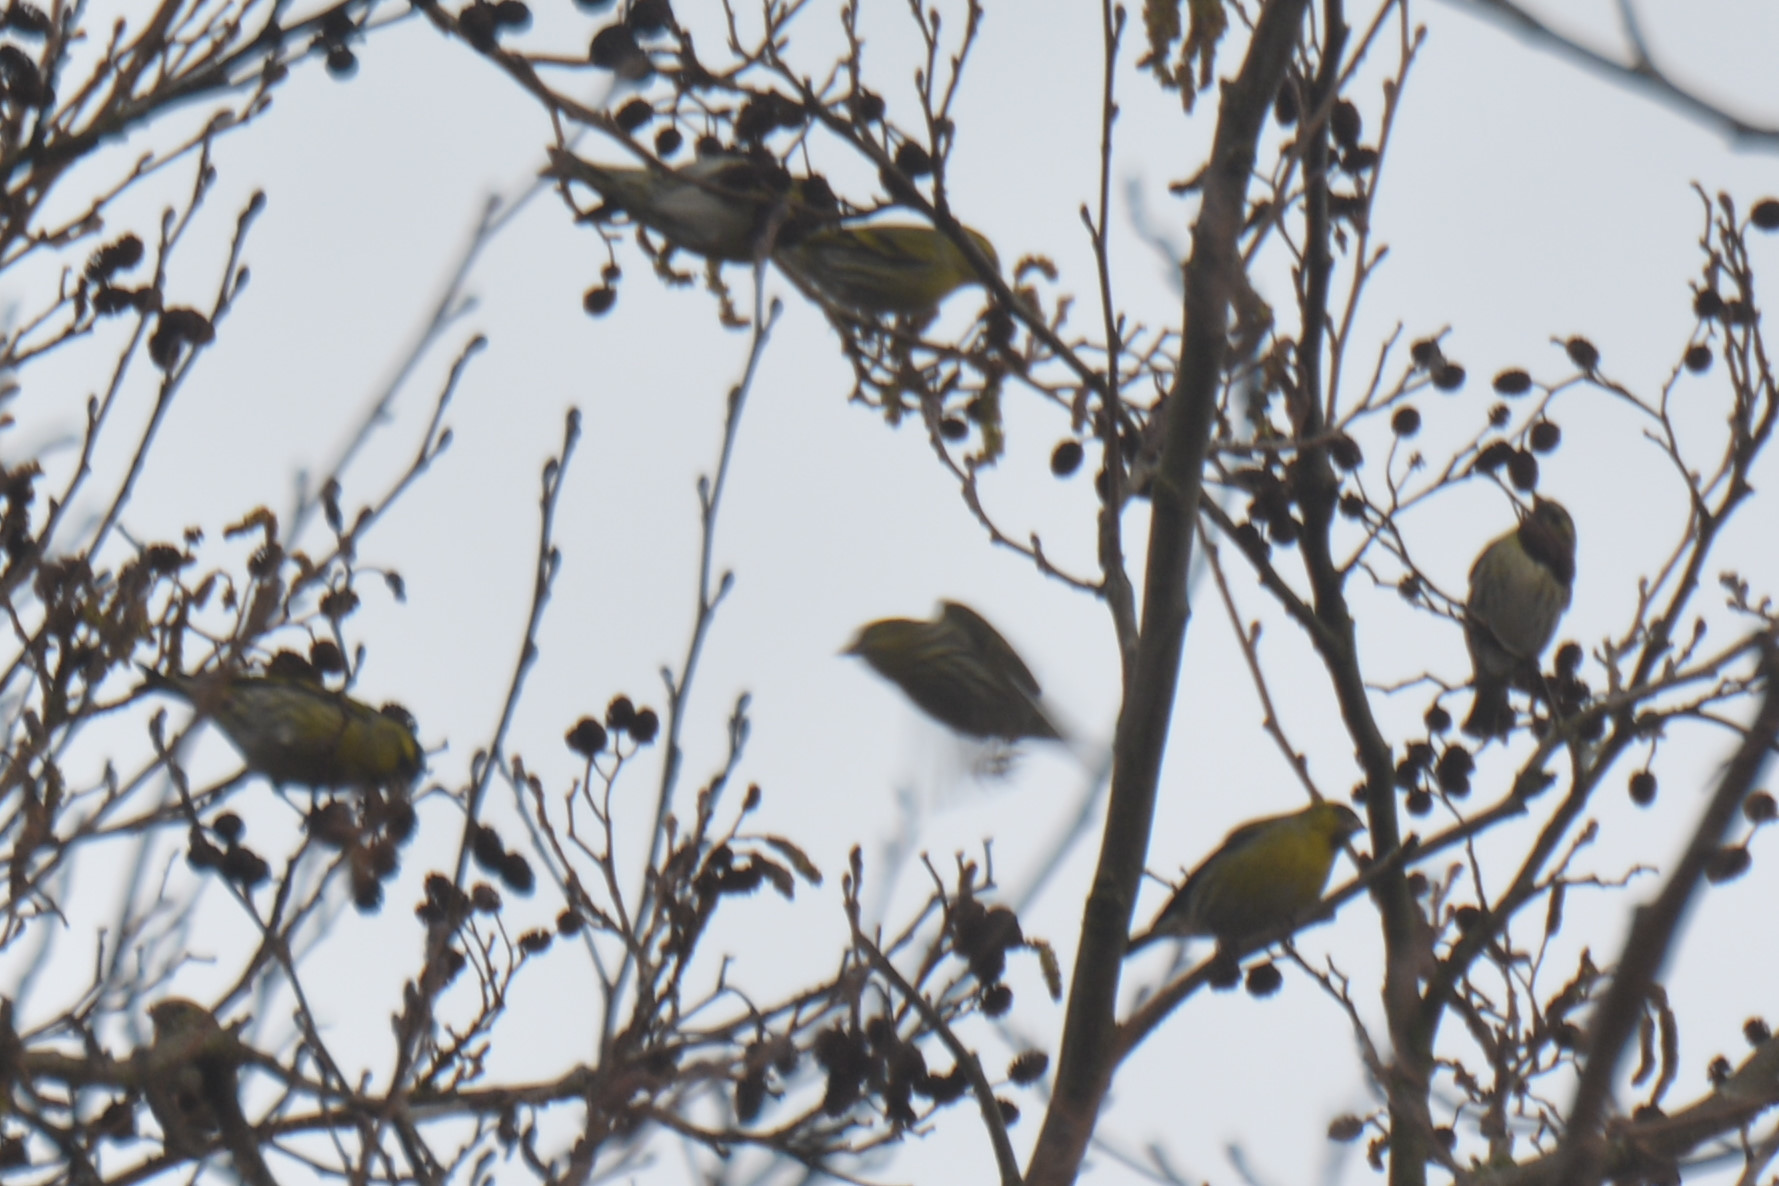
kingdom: Animalia
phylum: Chordata
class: Aves
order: Passeriformes
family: Fringillidae
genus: Spinus
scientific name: Spinus spinus
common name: Eurasian siskin
